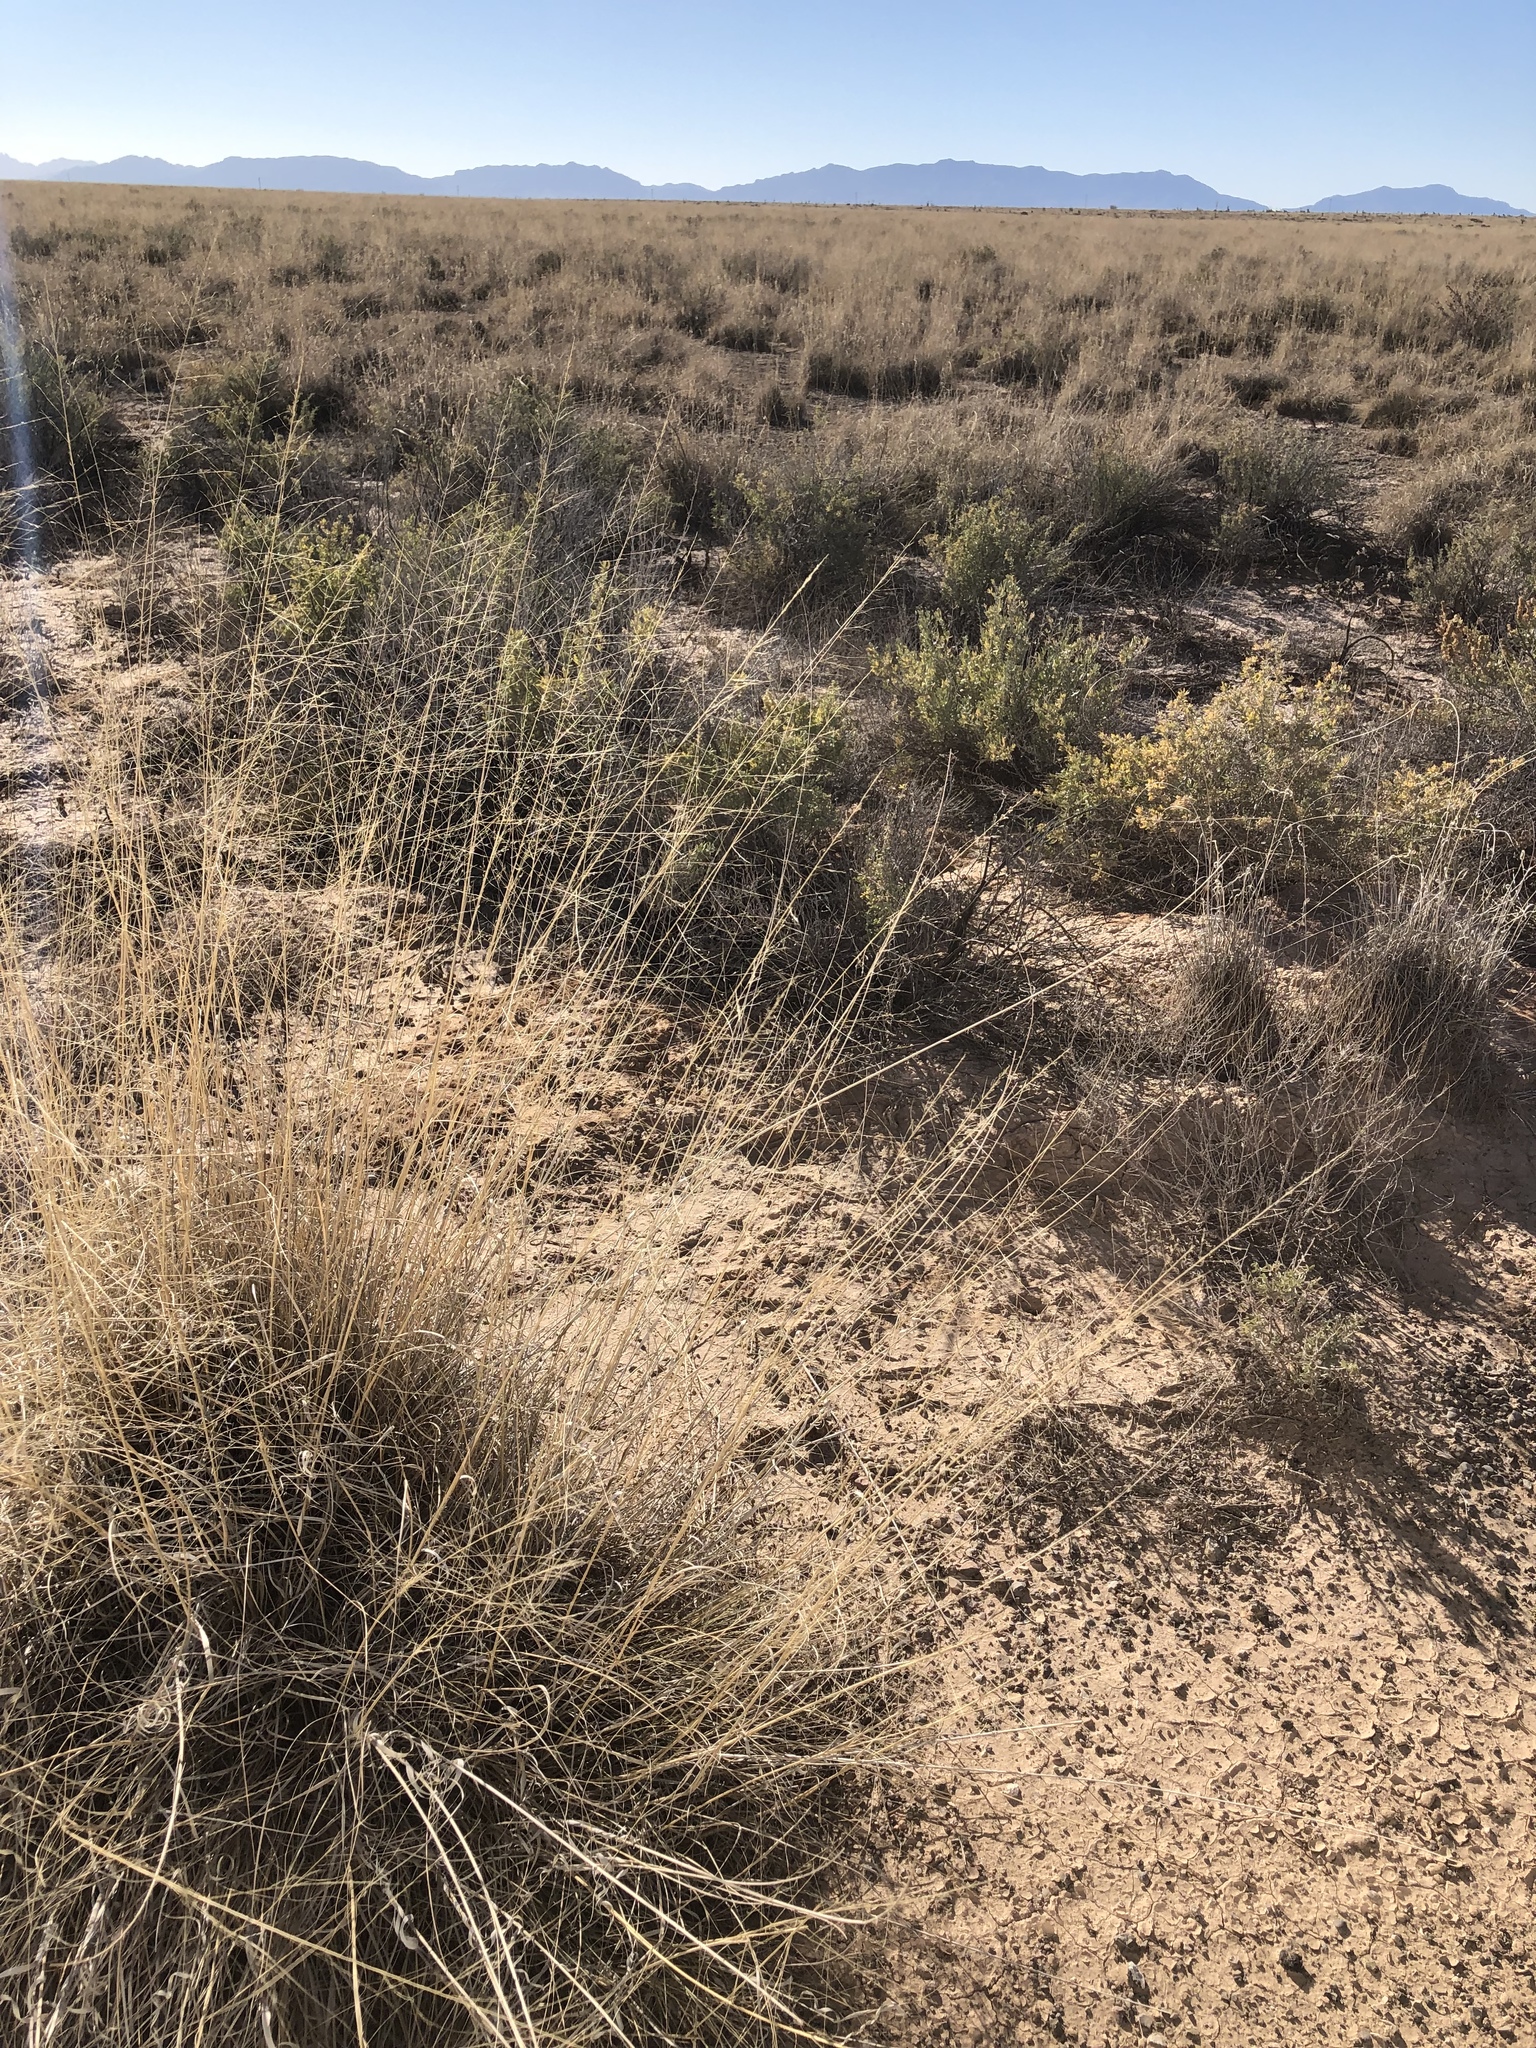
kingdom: Plantae
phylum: Tracheophyta
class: Liliopsida
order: Poales
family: Poaceae
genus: Sporobolus
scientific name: Sporobolus airoides
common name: Alkali sacaton
